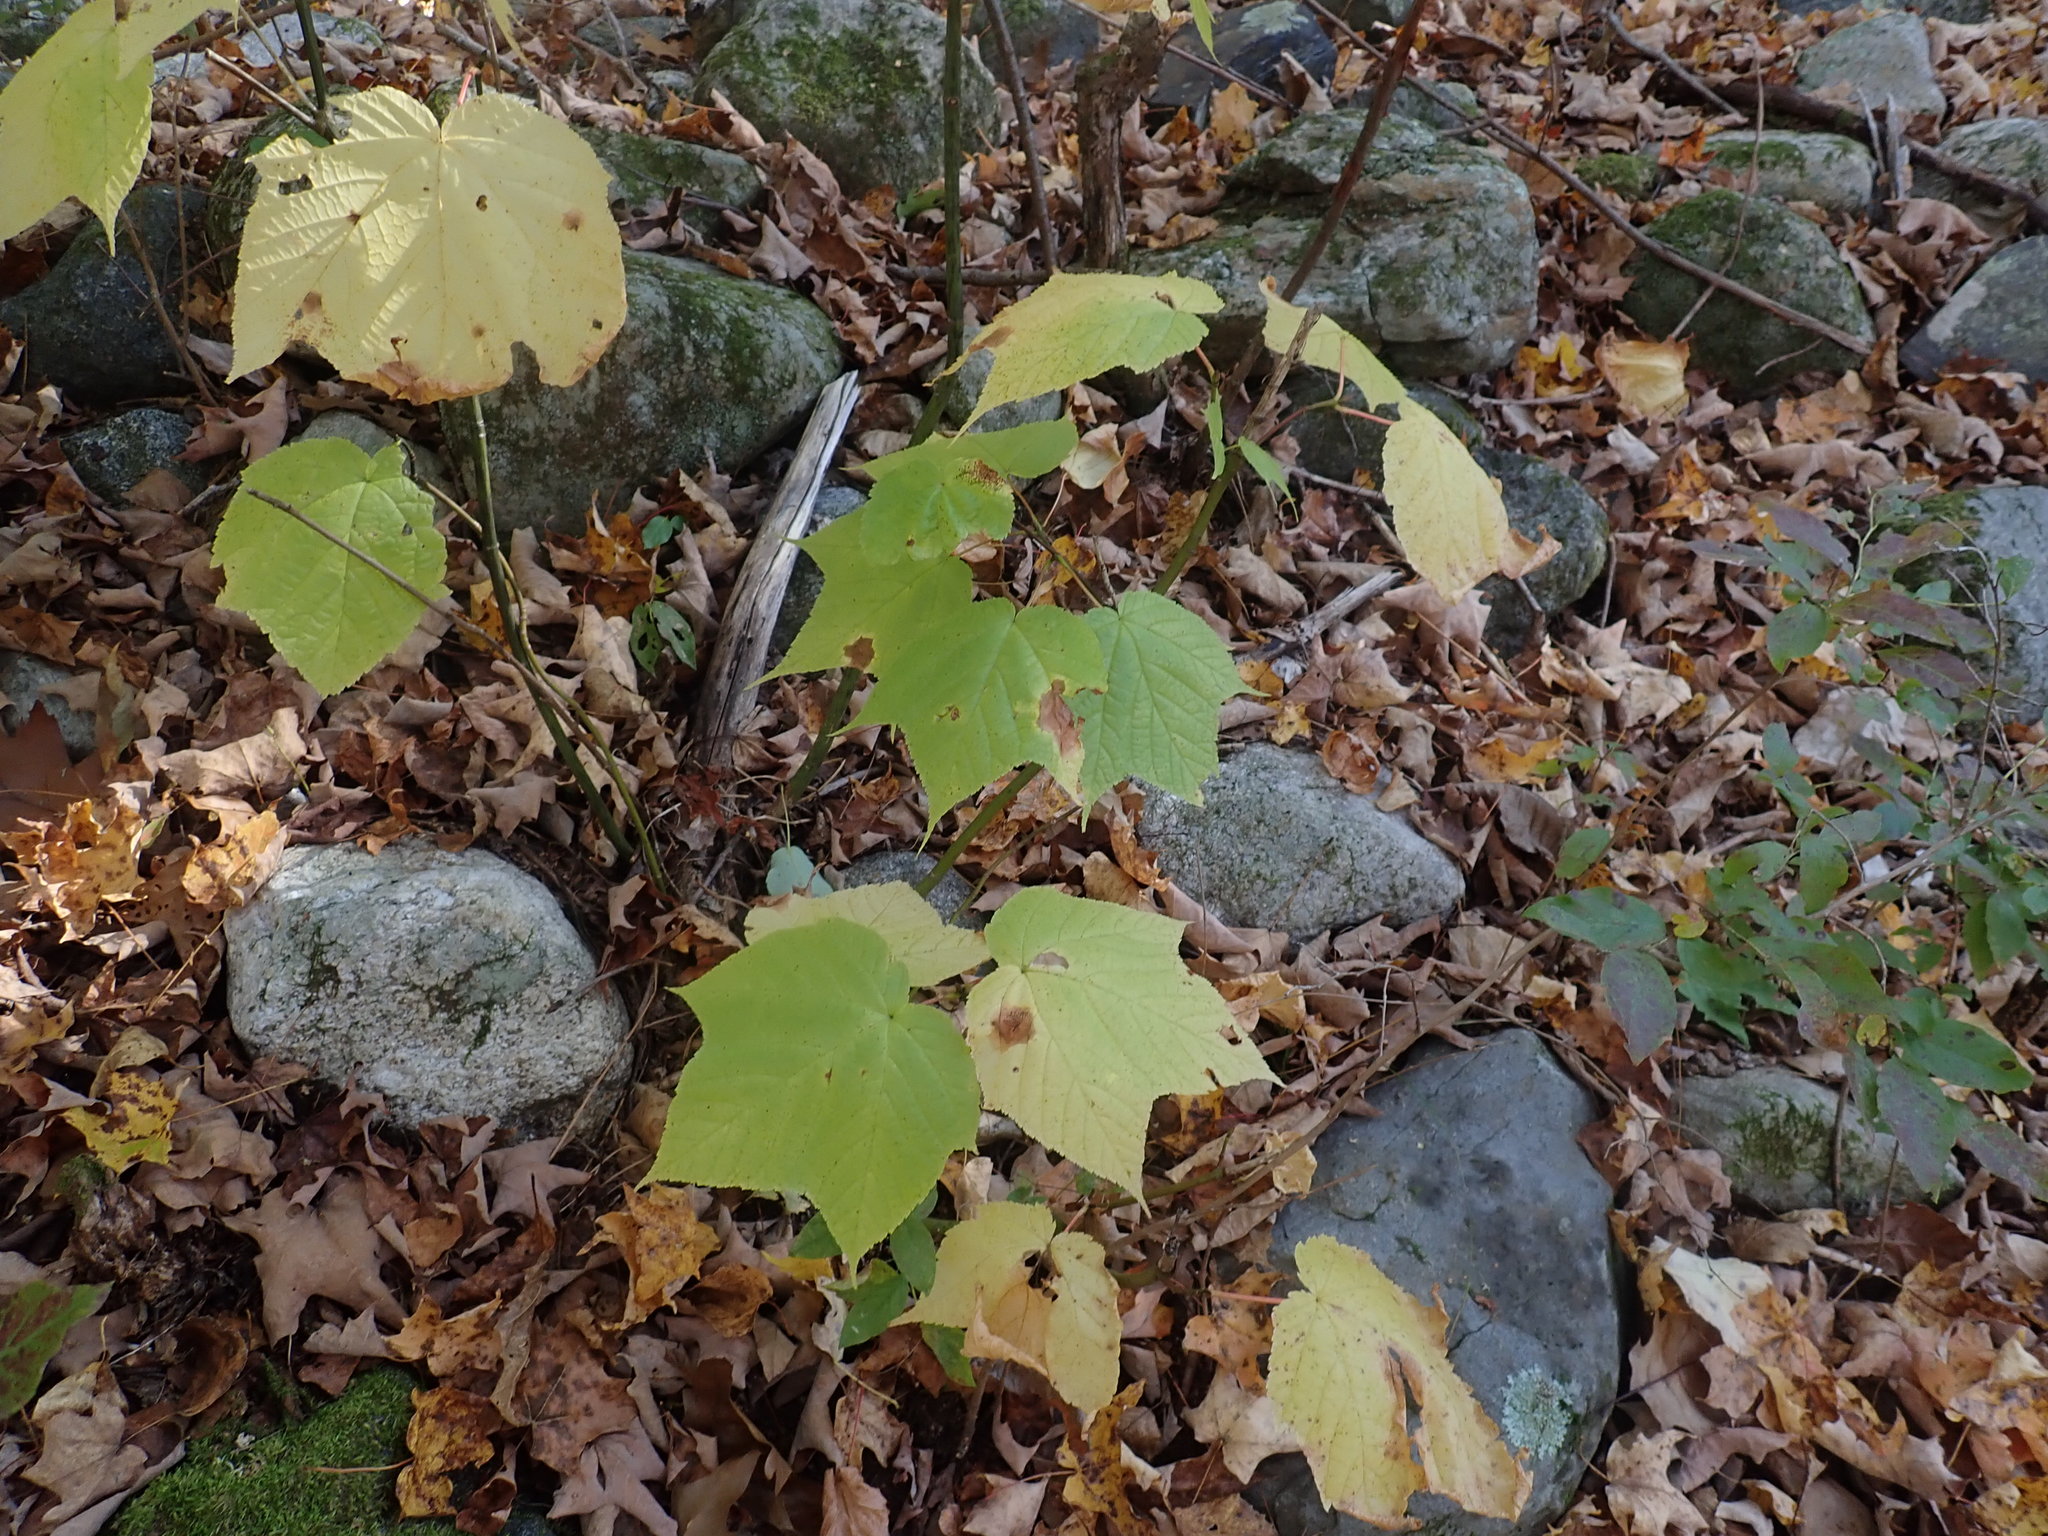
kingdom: Plantae
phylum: Tracheophyta
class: Magnoliopsida
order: Sapindales
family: Sapindaceae
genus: Acer
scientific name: Acer pensylvanicum
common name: Moosewood
